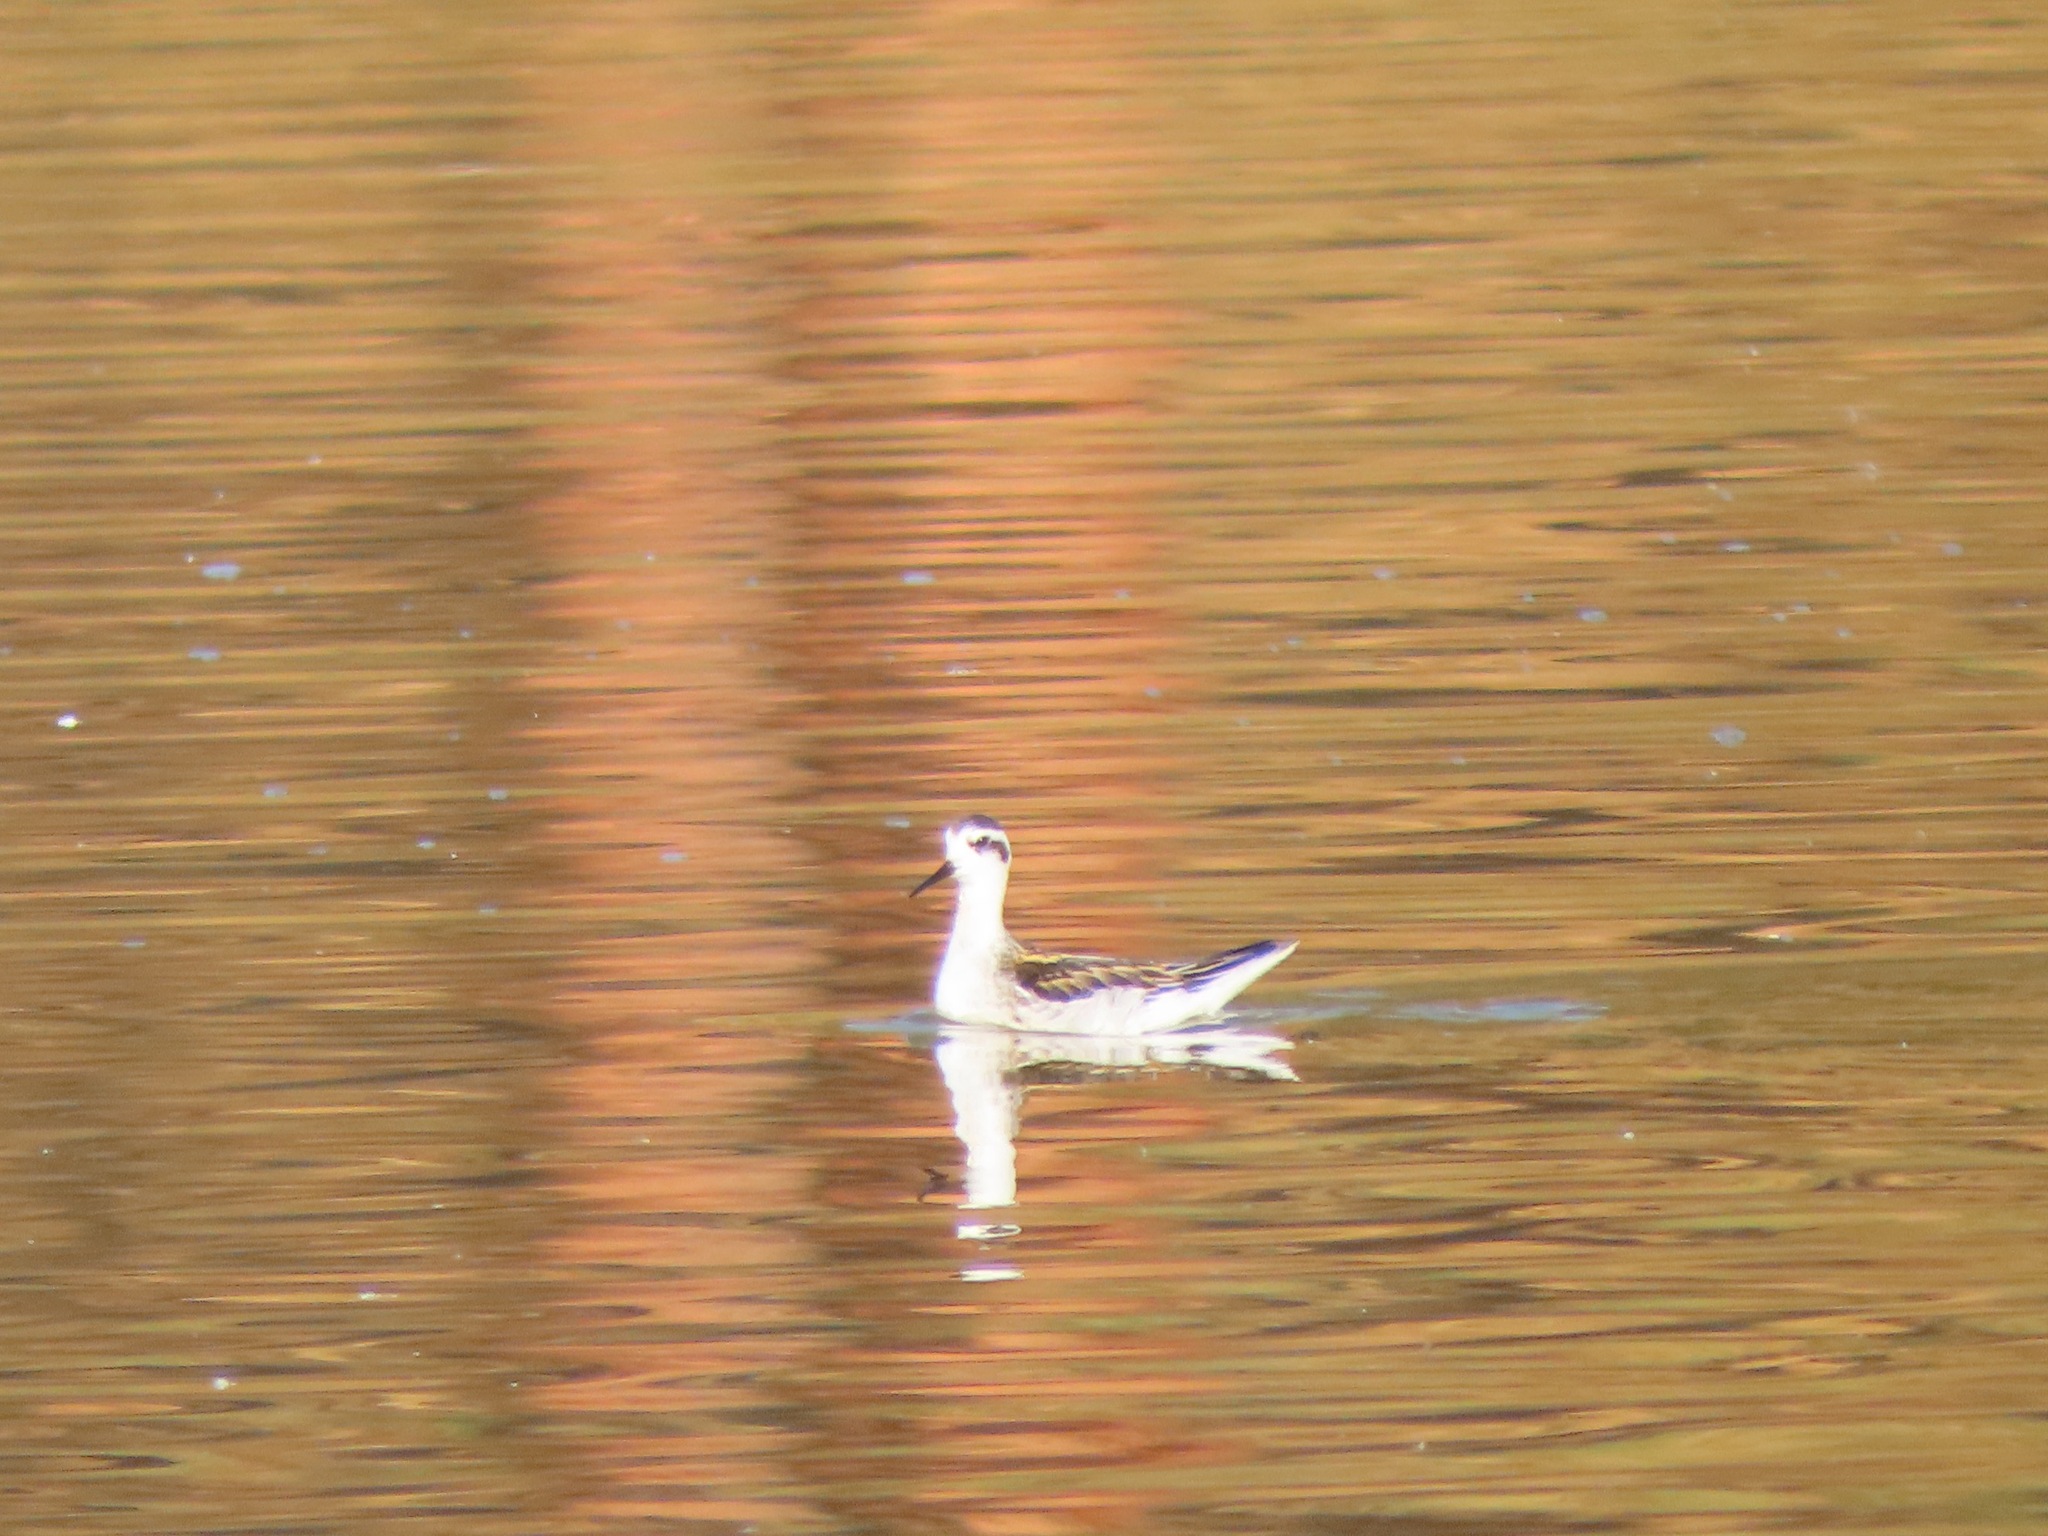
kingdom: Animalia
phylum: Chordata
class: Aves
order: Charadriiformes
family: Scolopacidae
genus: Phalaropus
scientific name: Phalaropus lobatus
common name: Red-necked phalarope
